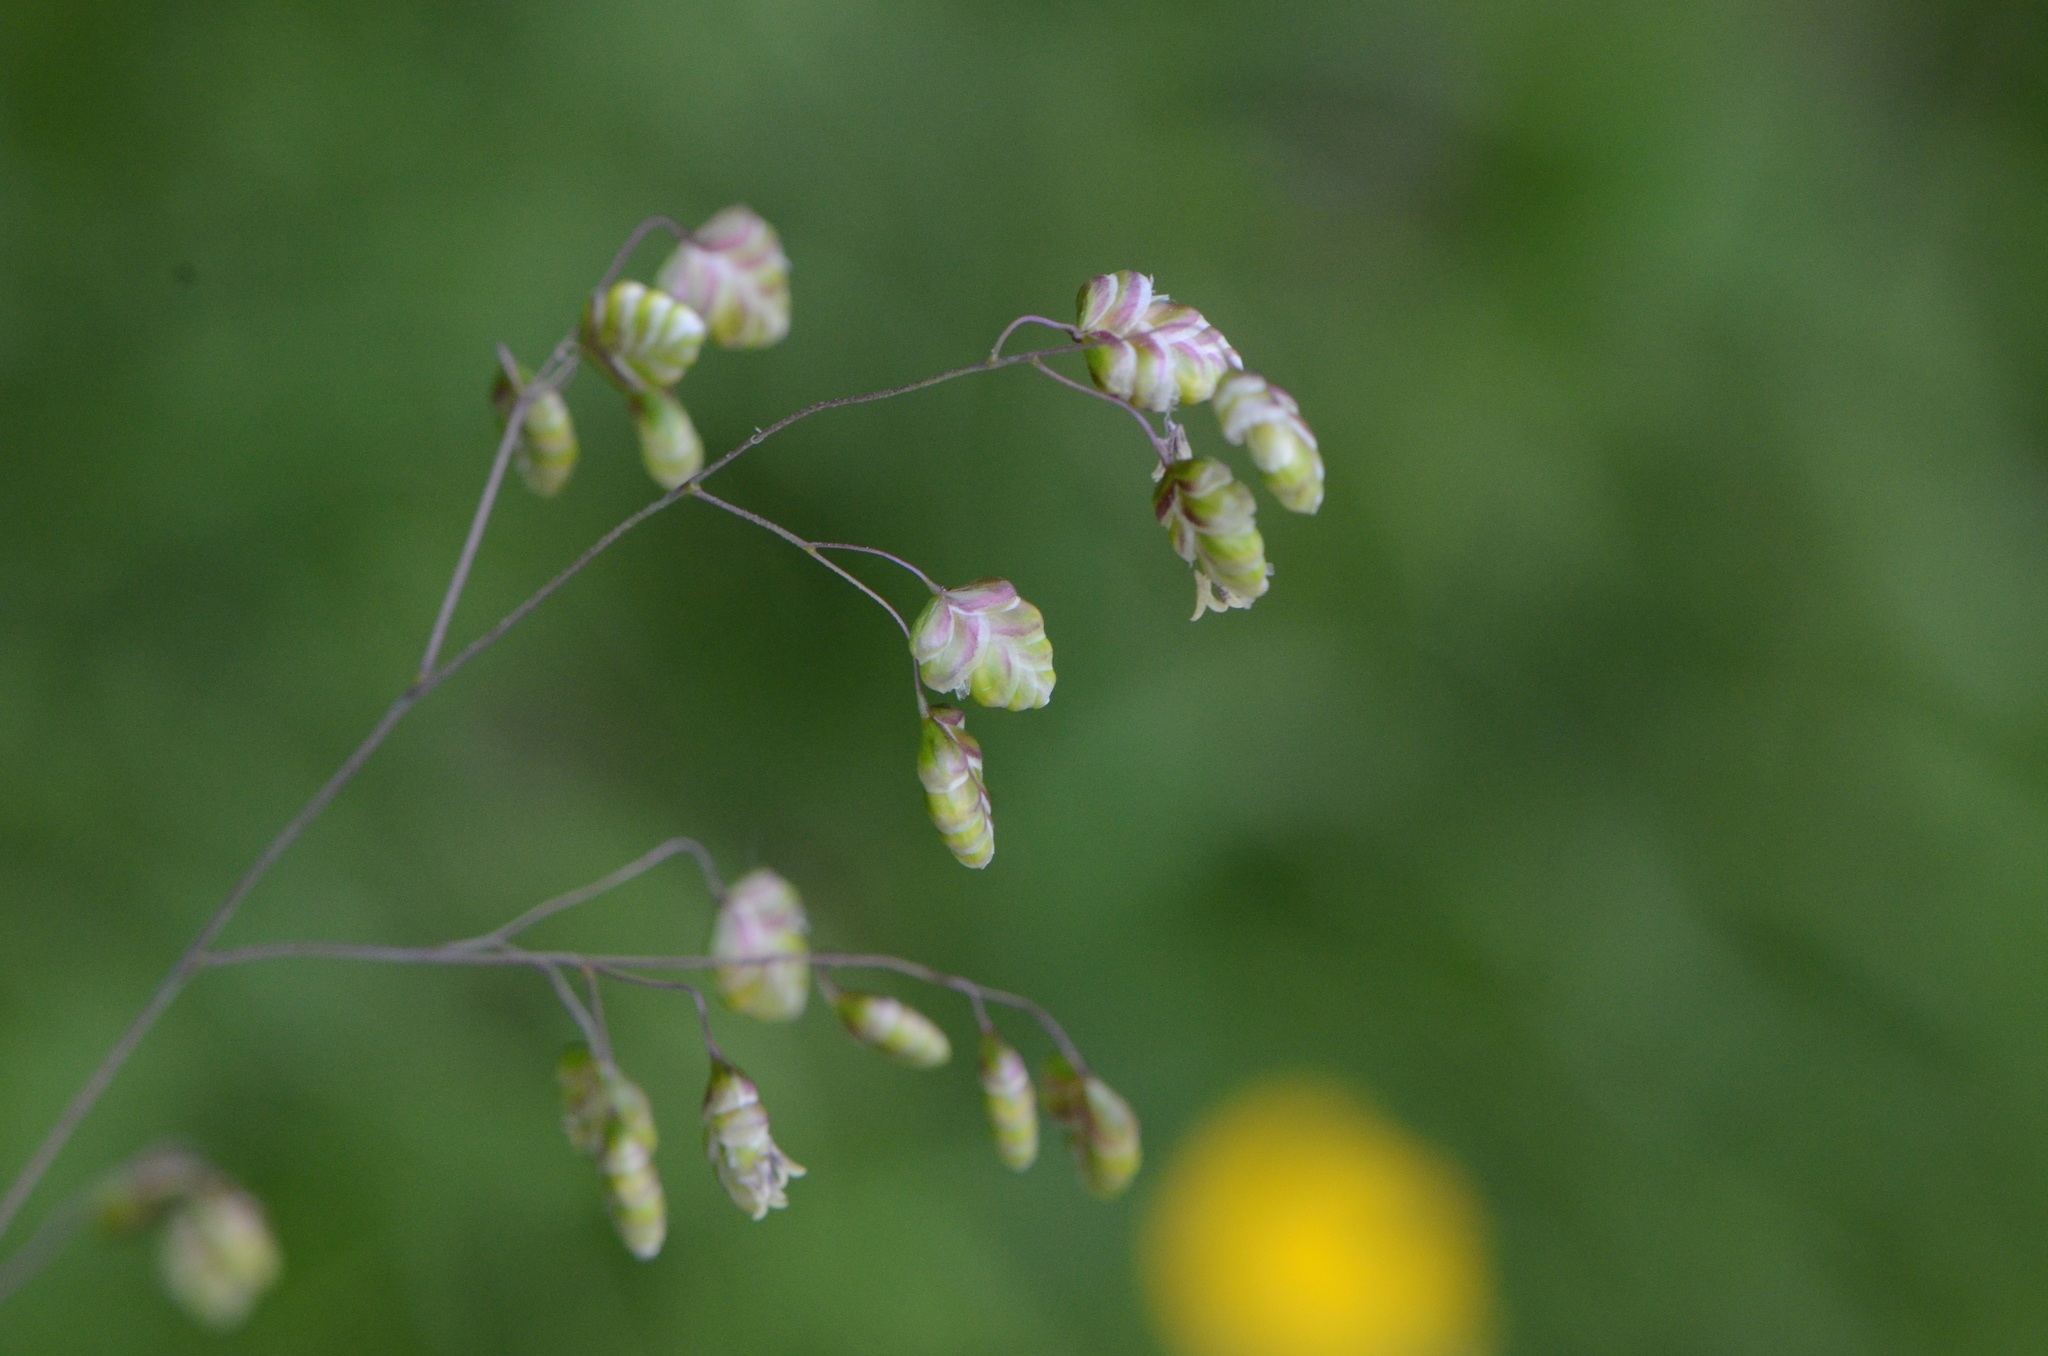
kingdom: Plantae
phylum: Tracheophyta
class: Liliopsida
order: Poales
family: Poaceae
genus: Briza
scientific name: Briza media
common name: Quaking grass
